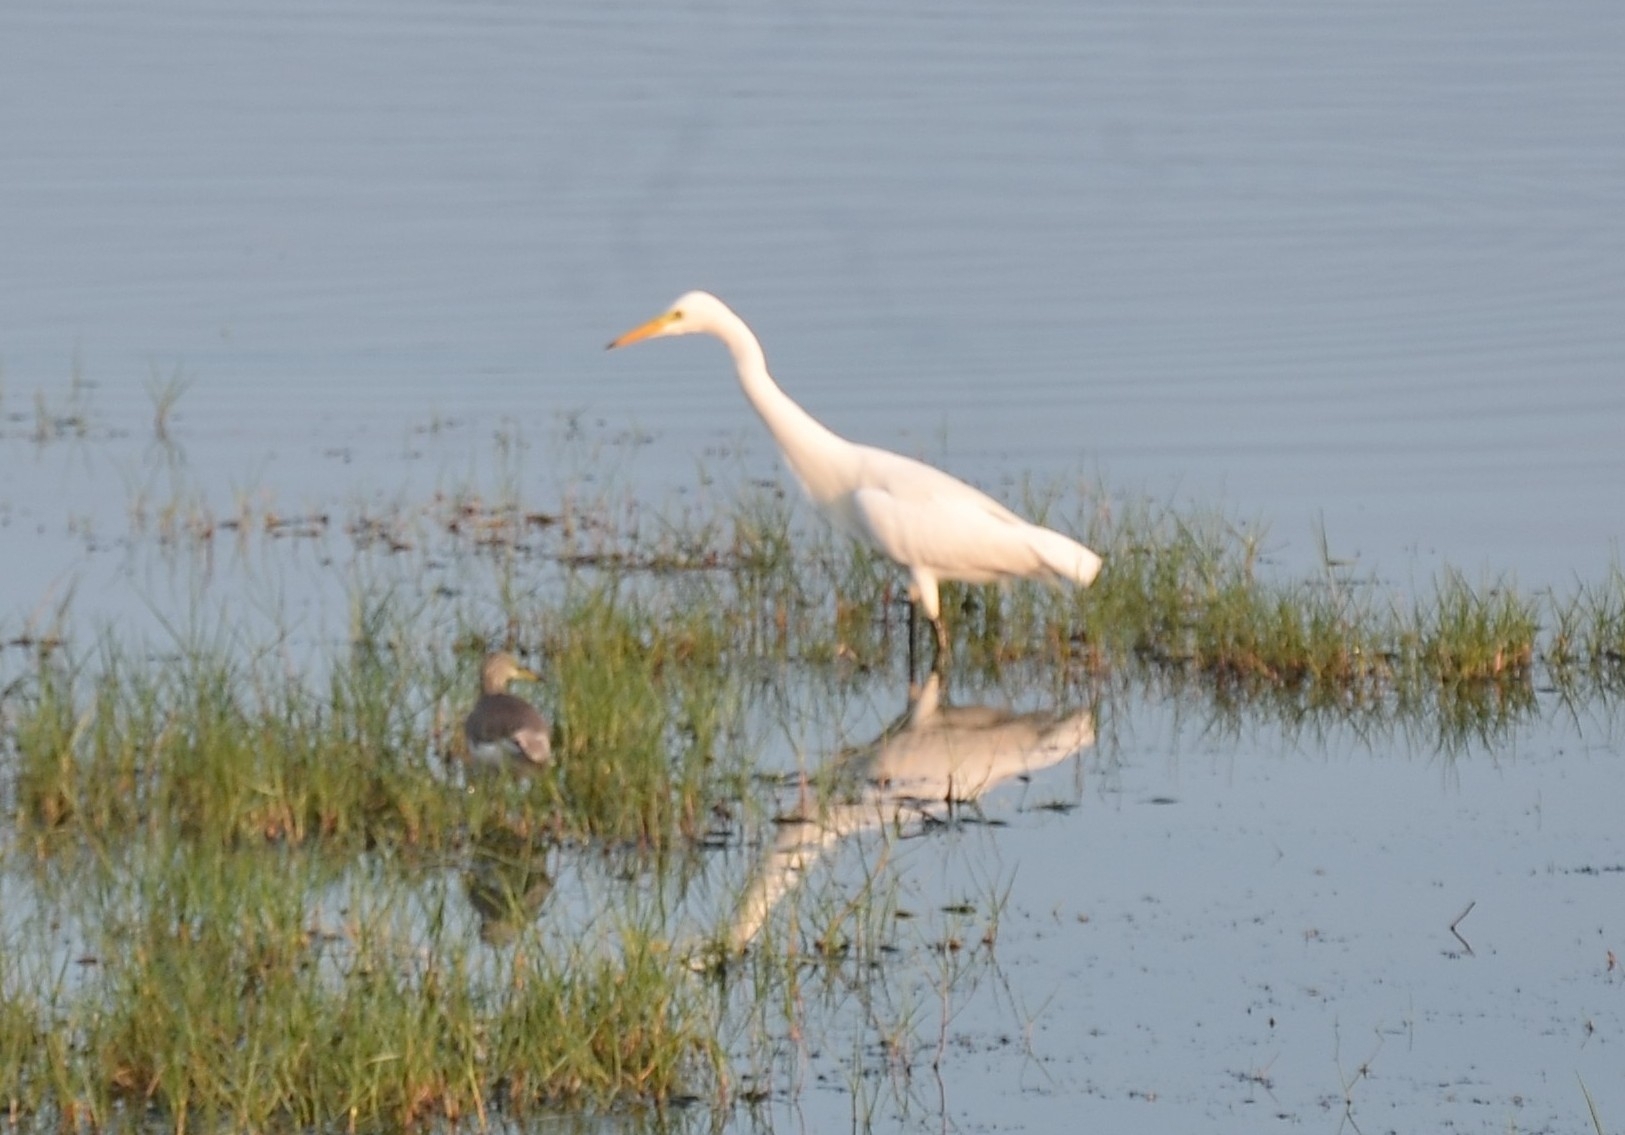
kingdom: Animalia
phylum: Chordata
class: Aves
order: Pelecaniformes
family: Ardeidae
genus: Egretta
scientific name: Egretta intermedia
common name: Intermediate egret
